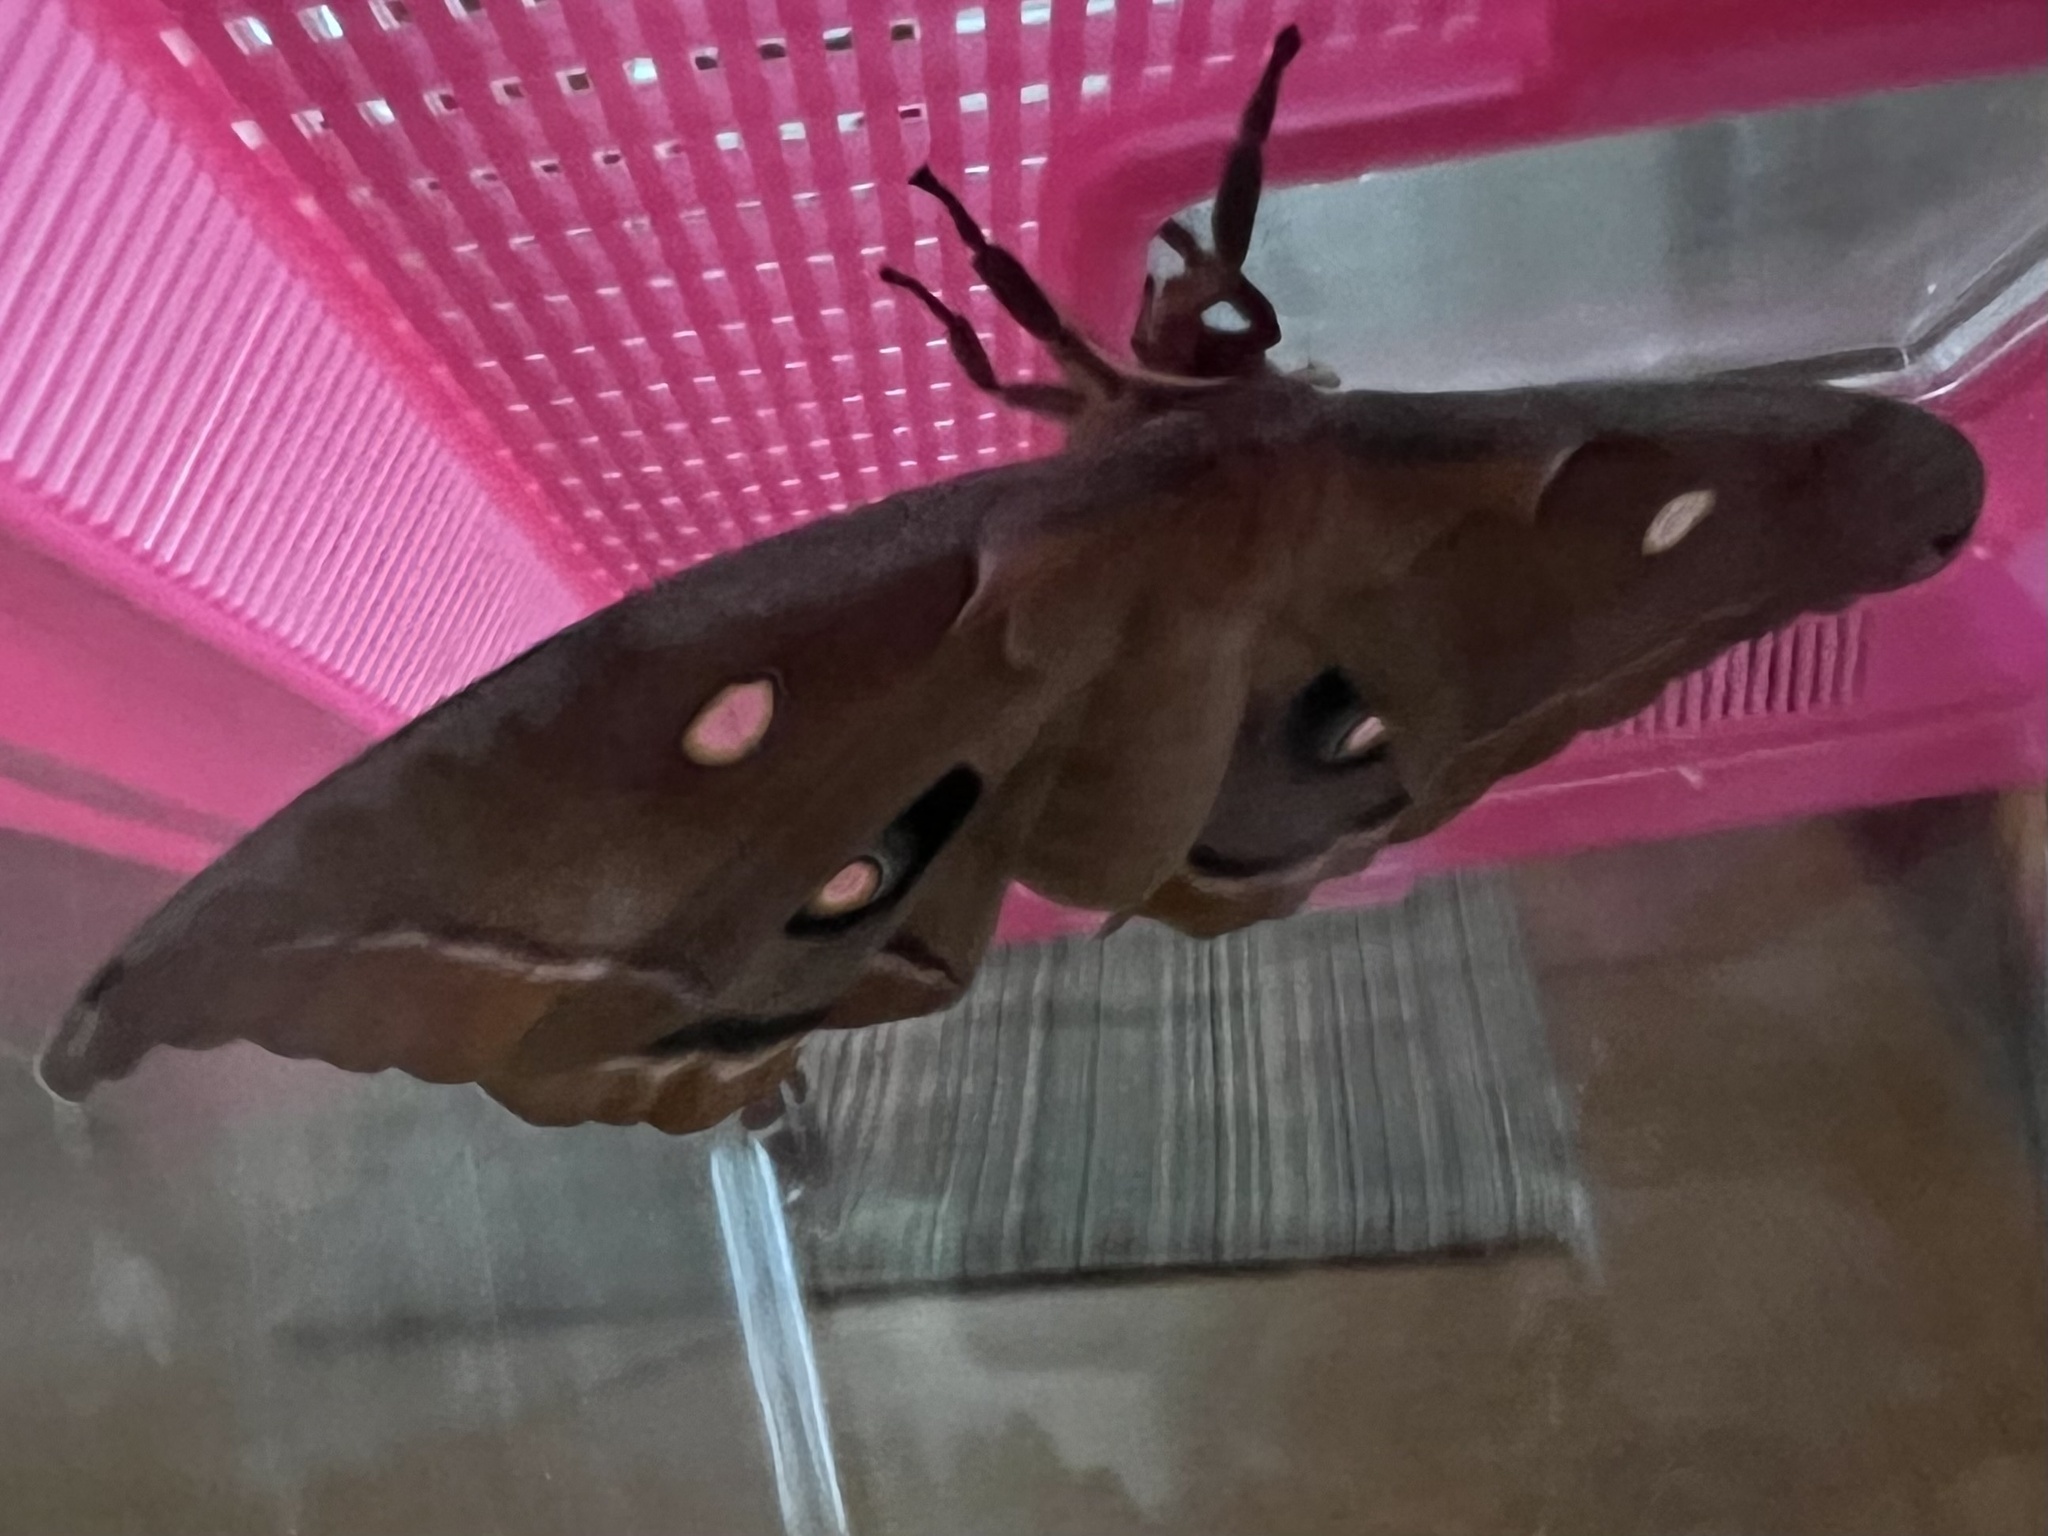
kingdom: Animalia
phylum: Arthropoda
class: Insecta
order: Lepidoptera
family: Saturniidae
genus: Antheraea
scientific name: Antheraea polyphemus
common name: Polyphemus moth
